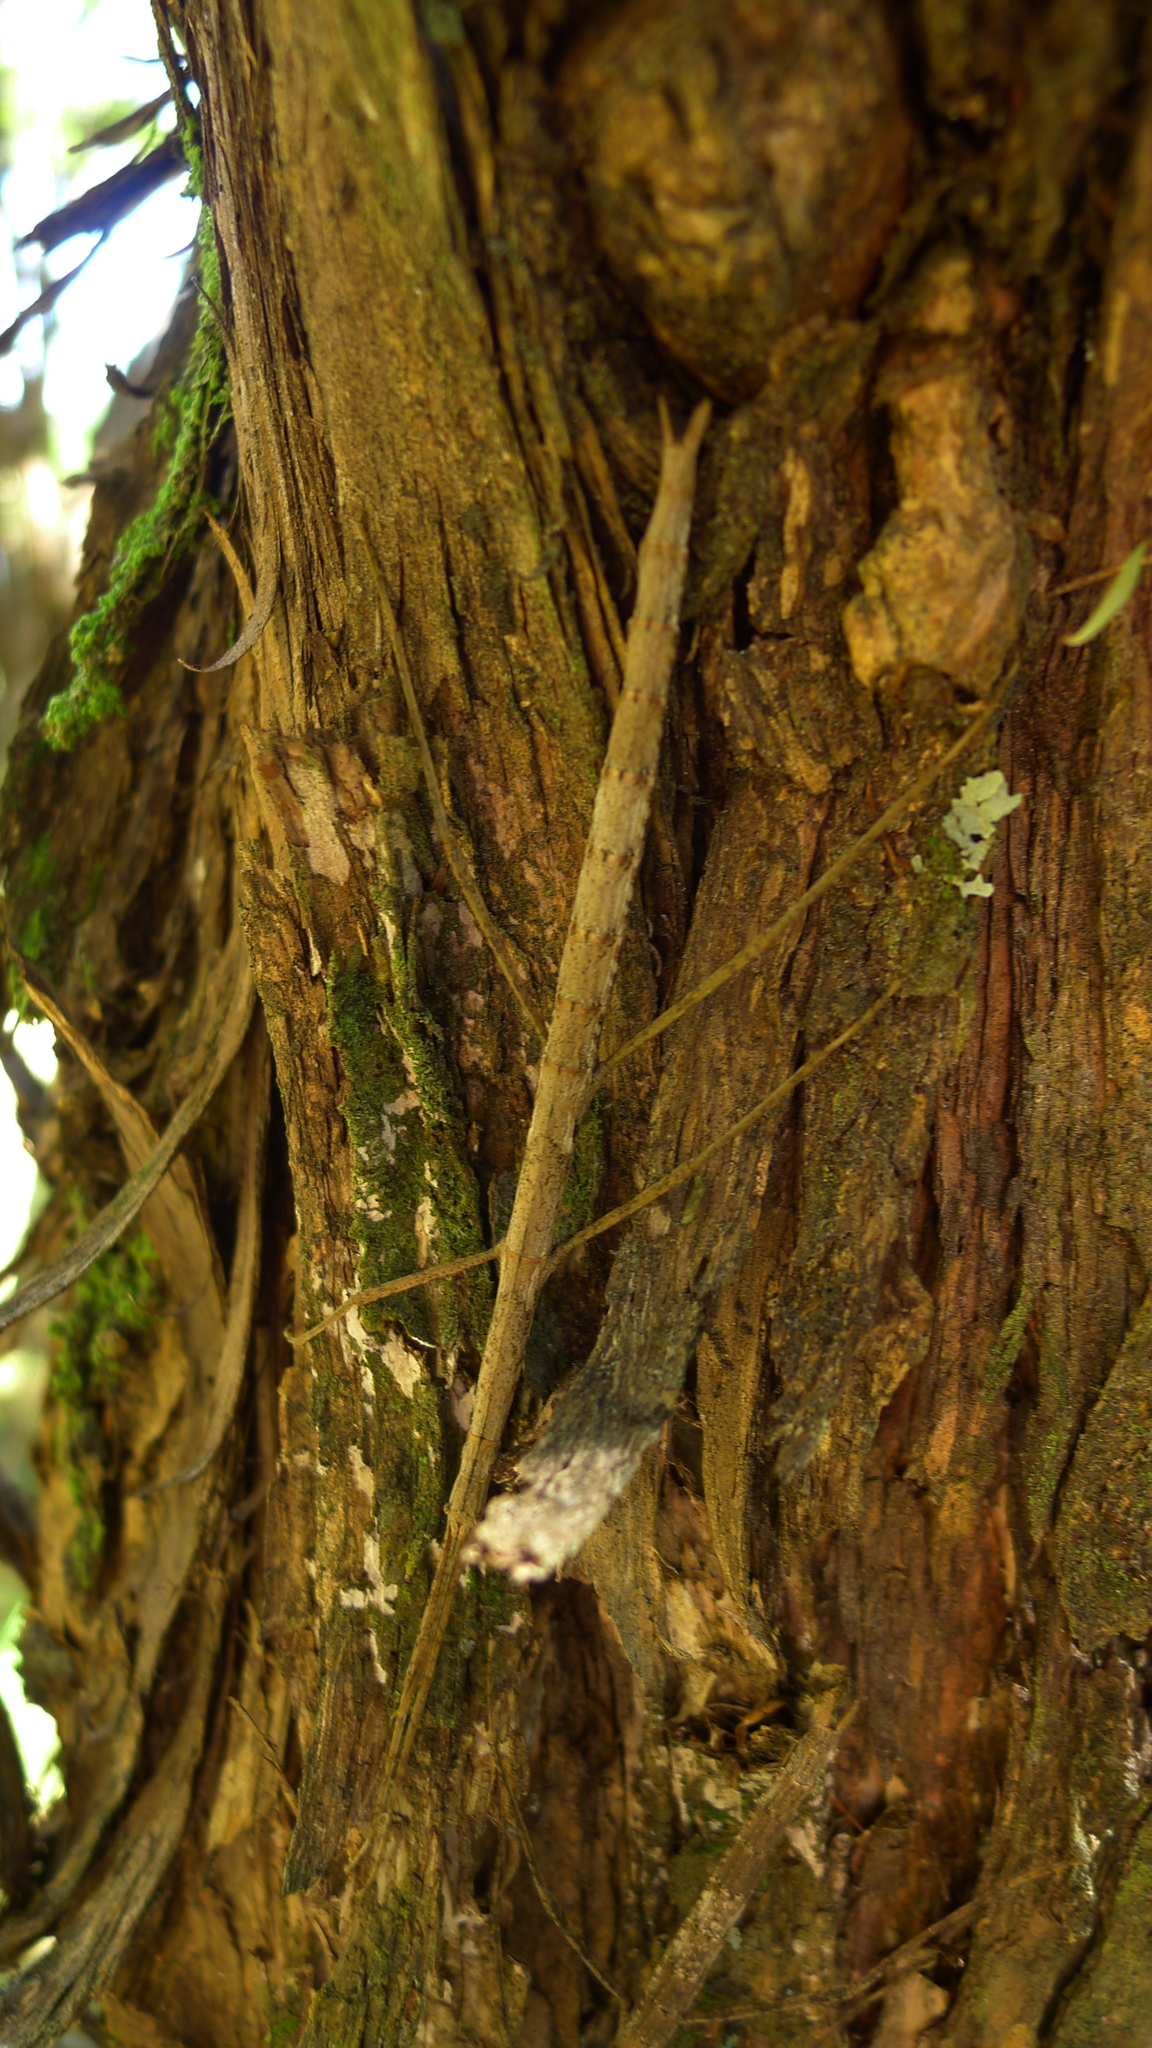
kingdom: Animalia
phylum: Arthropoda
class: Insecta
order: Phasmida
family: Phasmatidae
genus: Clitarchus
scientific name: Clitarchus hookeri
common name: Smooth stick insect
